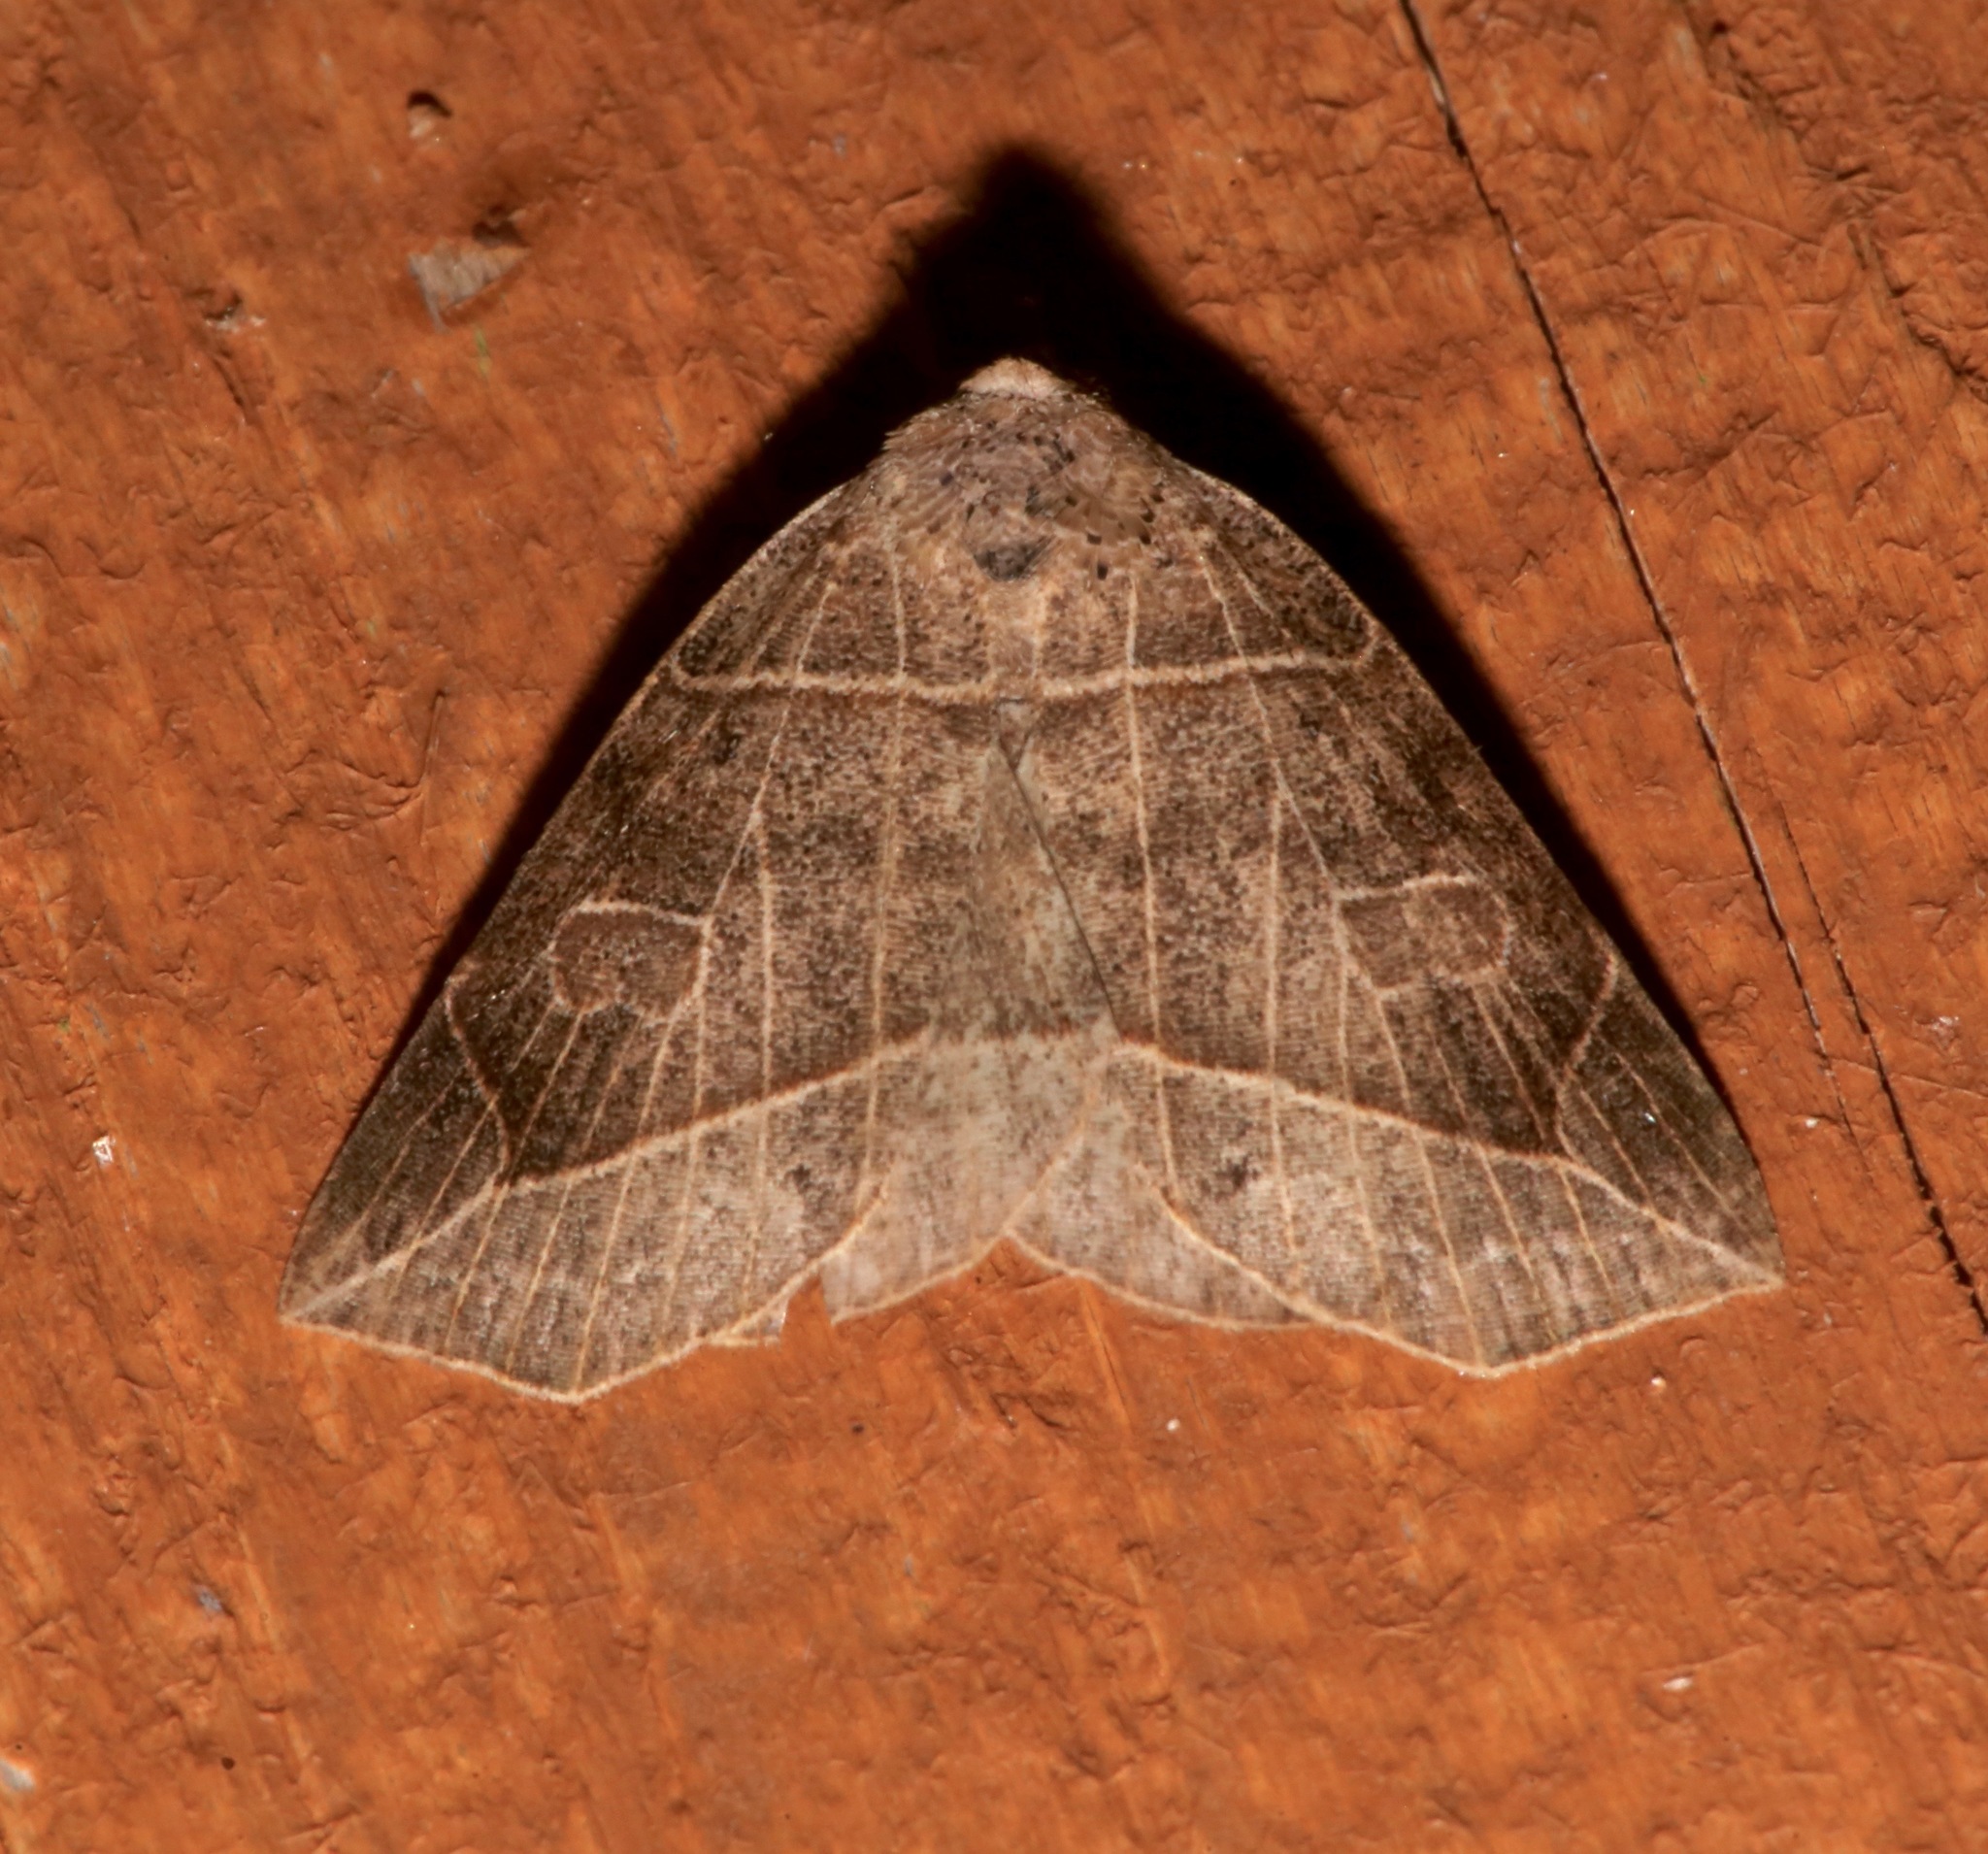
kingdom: Animalia
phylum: Arthropoda
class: Insecta
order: Lepidoptera
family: Erebidae
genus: Isogona
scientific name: Isogona tenuis
